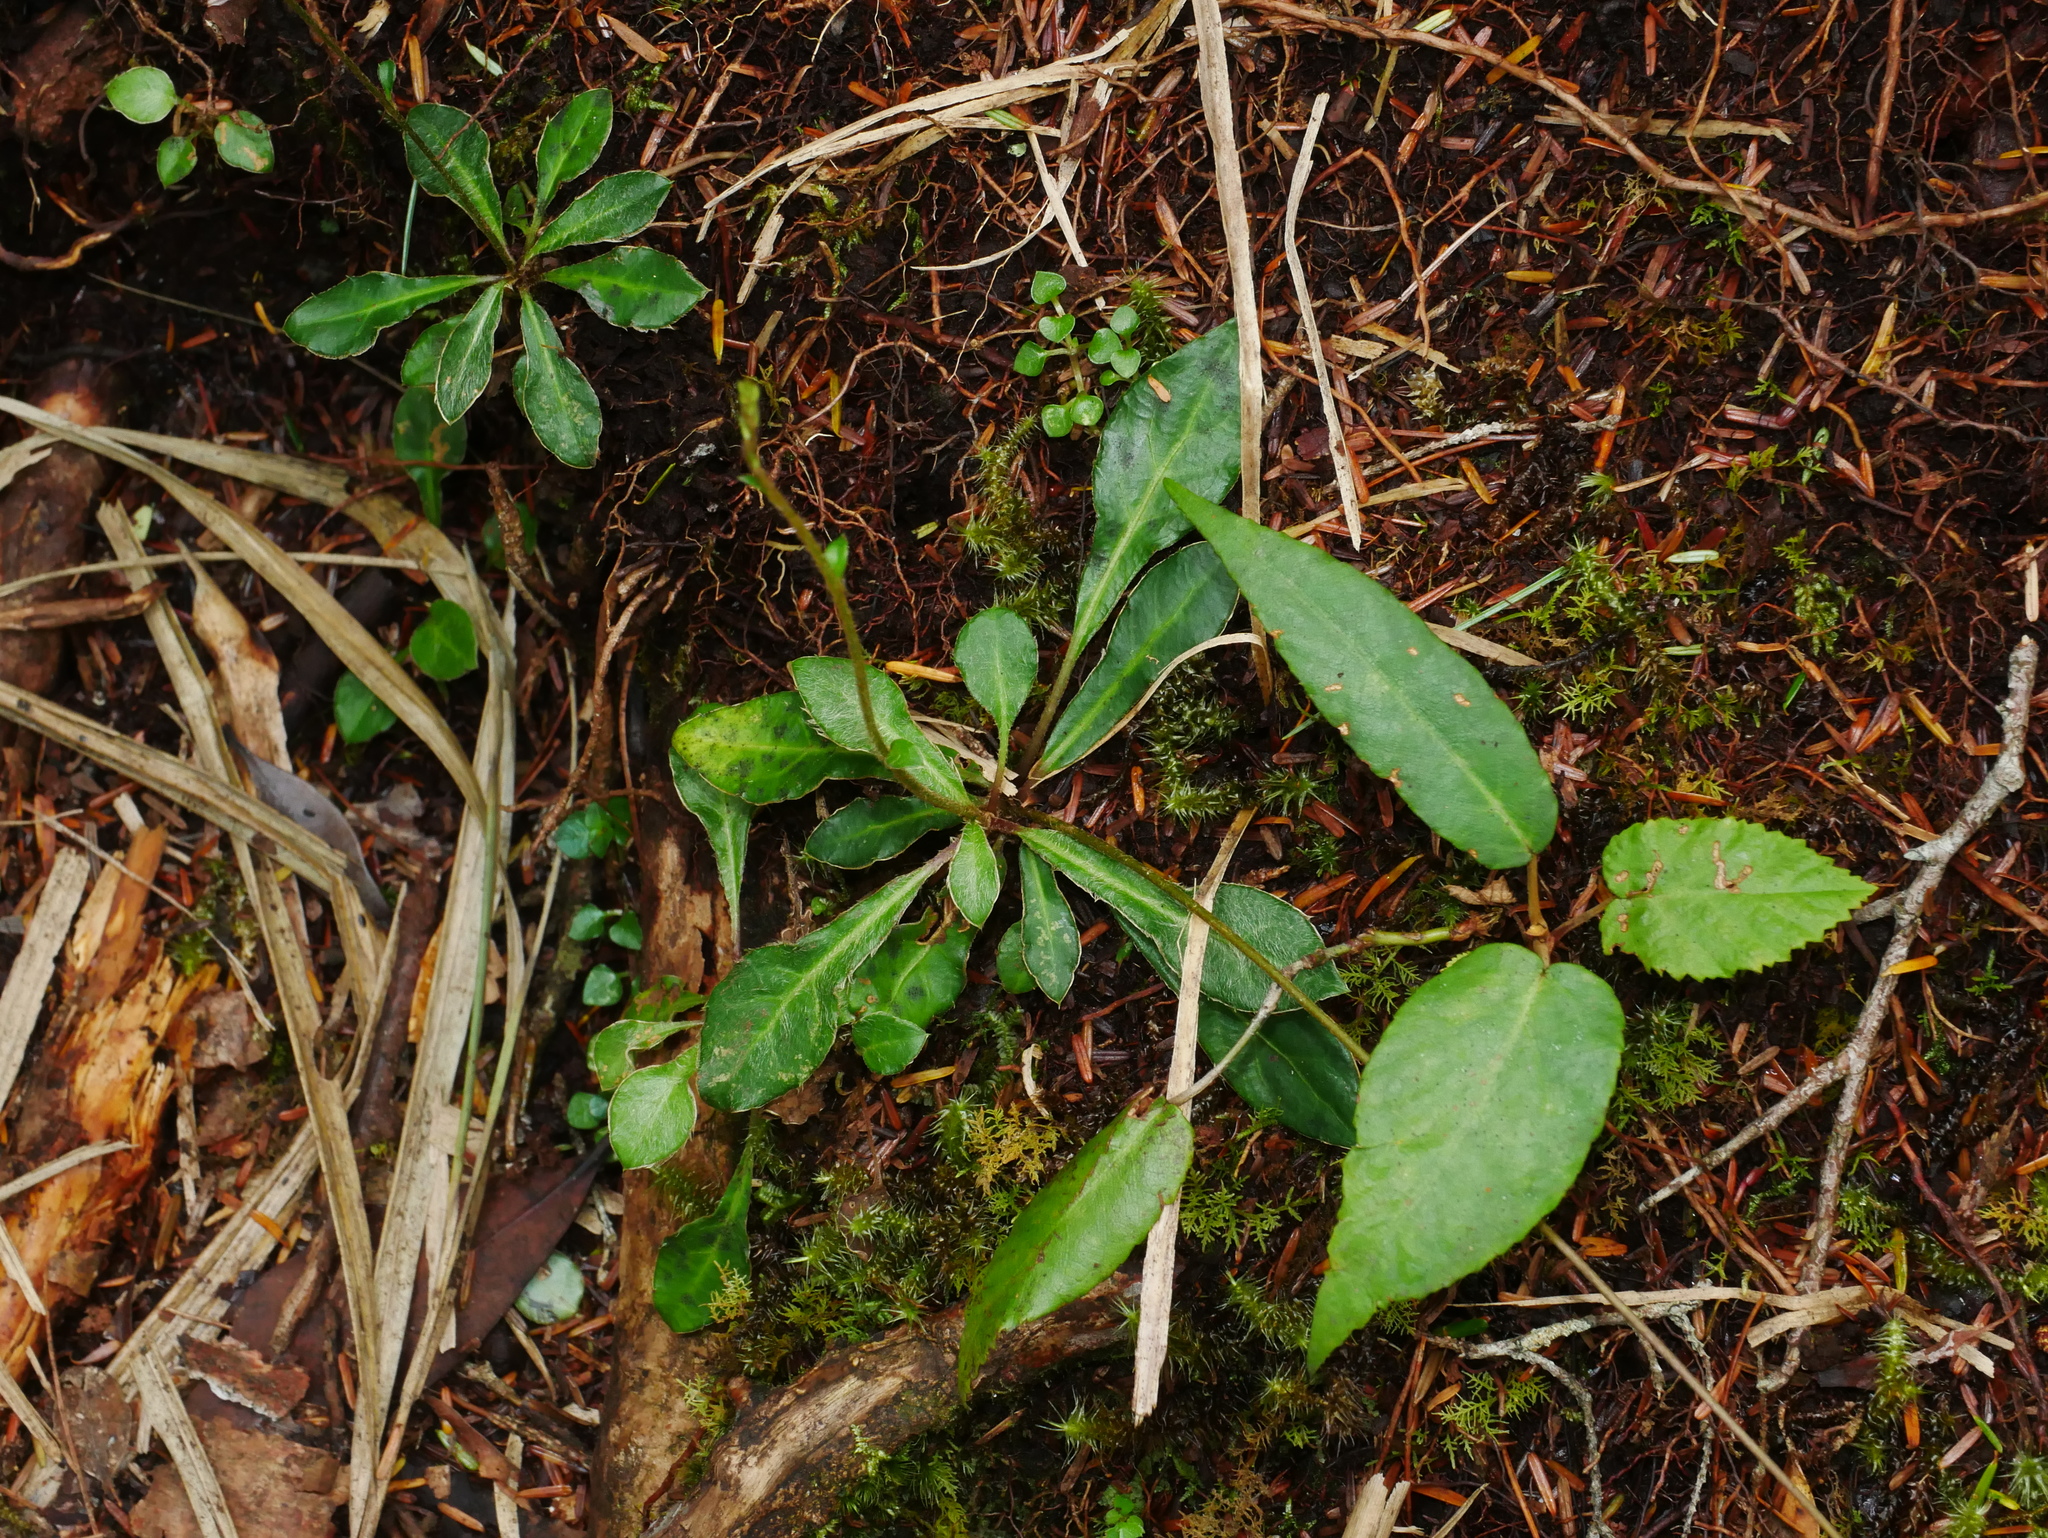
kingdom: Plantae
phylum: Tracheophyta
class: Magnoliopsida
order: Asterales
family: Asteraceae
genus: Ainsliaea
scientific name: Ainsliaea latifolia
